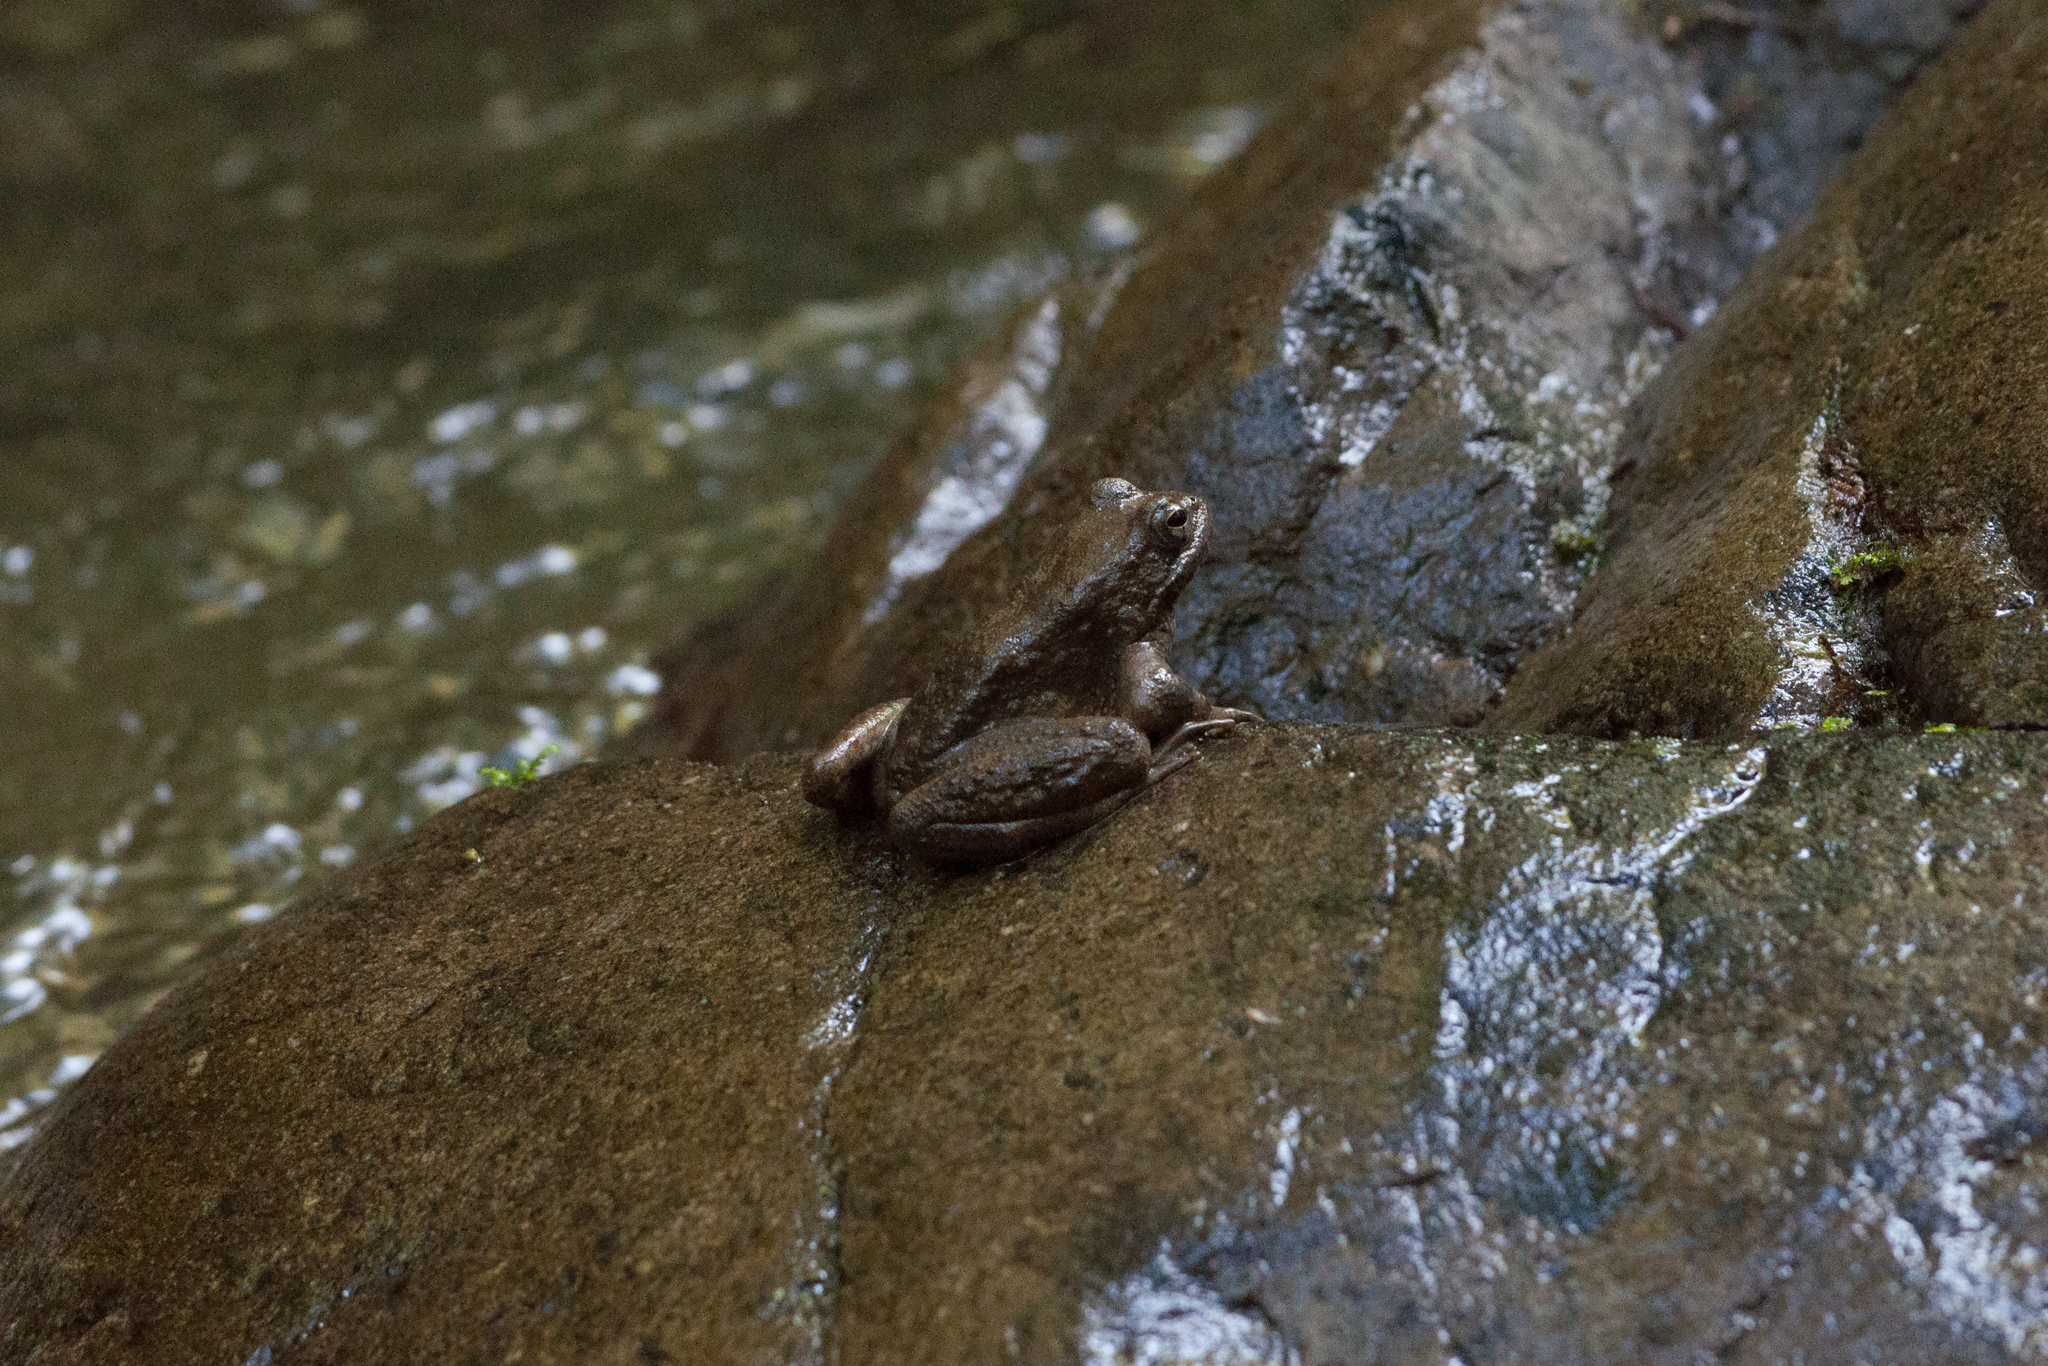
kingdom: Animalia
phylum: Chordata
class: Amphibia
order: Anura
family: Ranidae
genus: Rana
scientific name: Rana boylii
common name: Foothill yellow-legged frog
